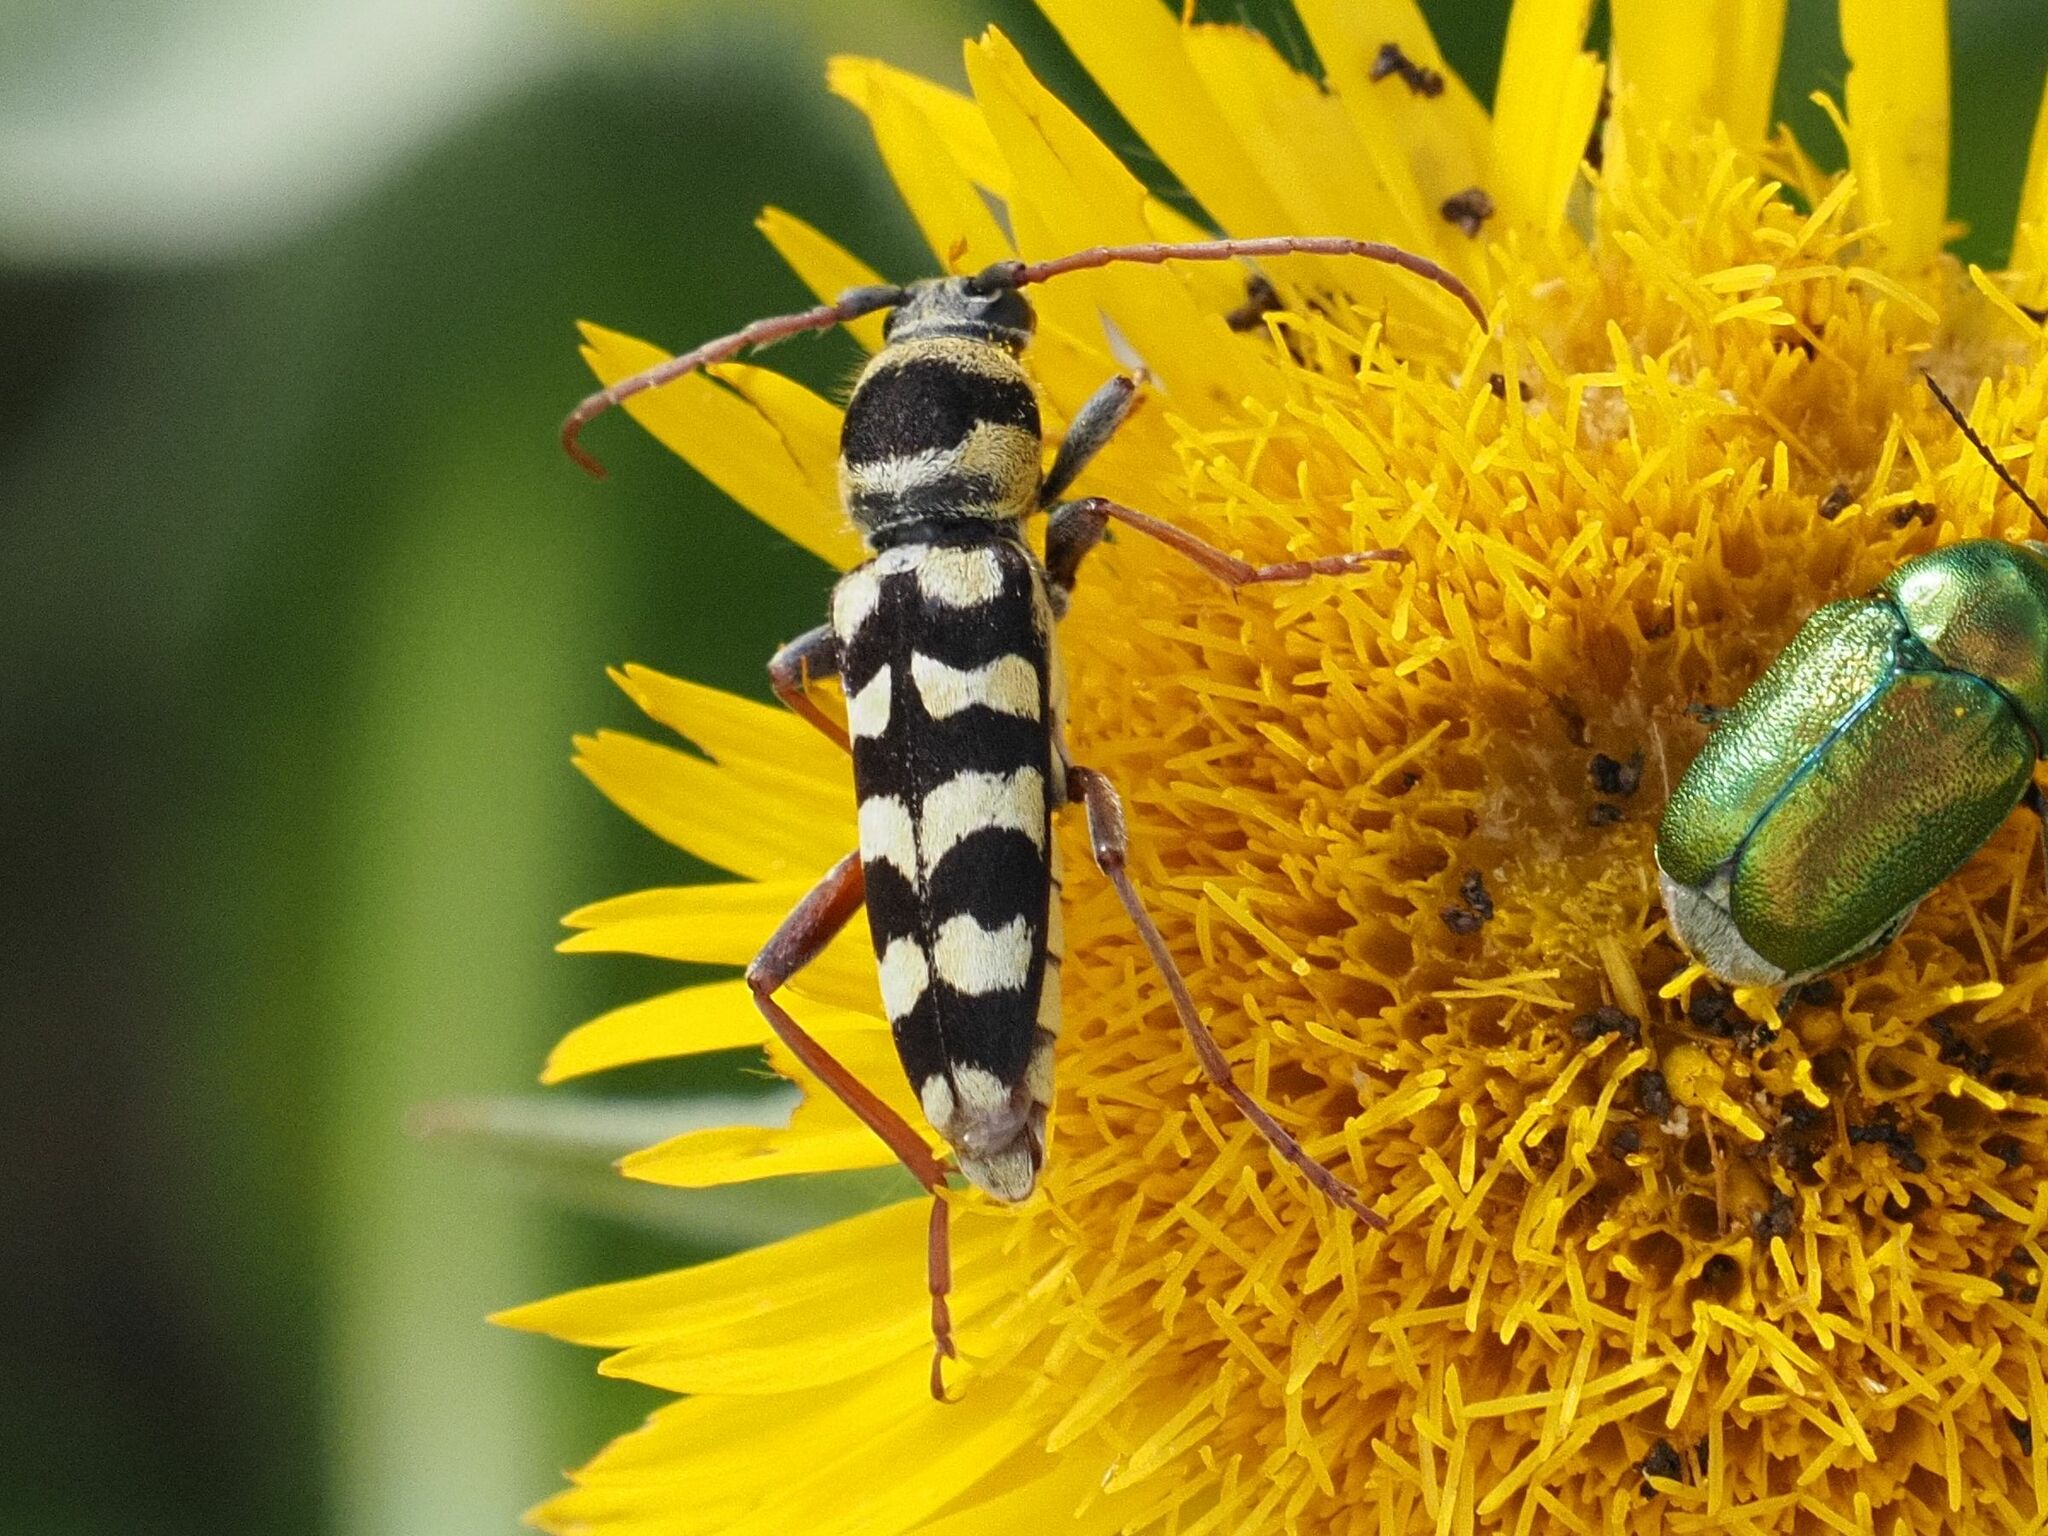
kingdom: Animalia
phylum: Arthropoda
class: Insecta
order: Coleoptera
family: Cerambycidae
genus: Plagionotus
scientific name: Plagionotus floralis
